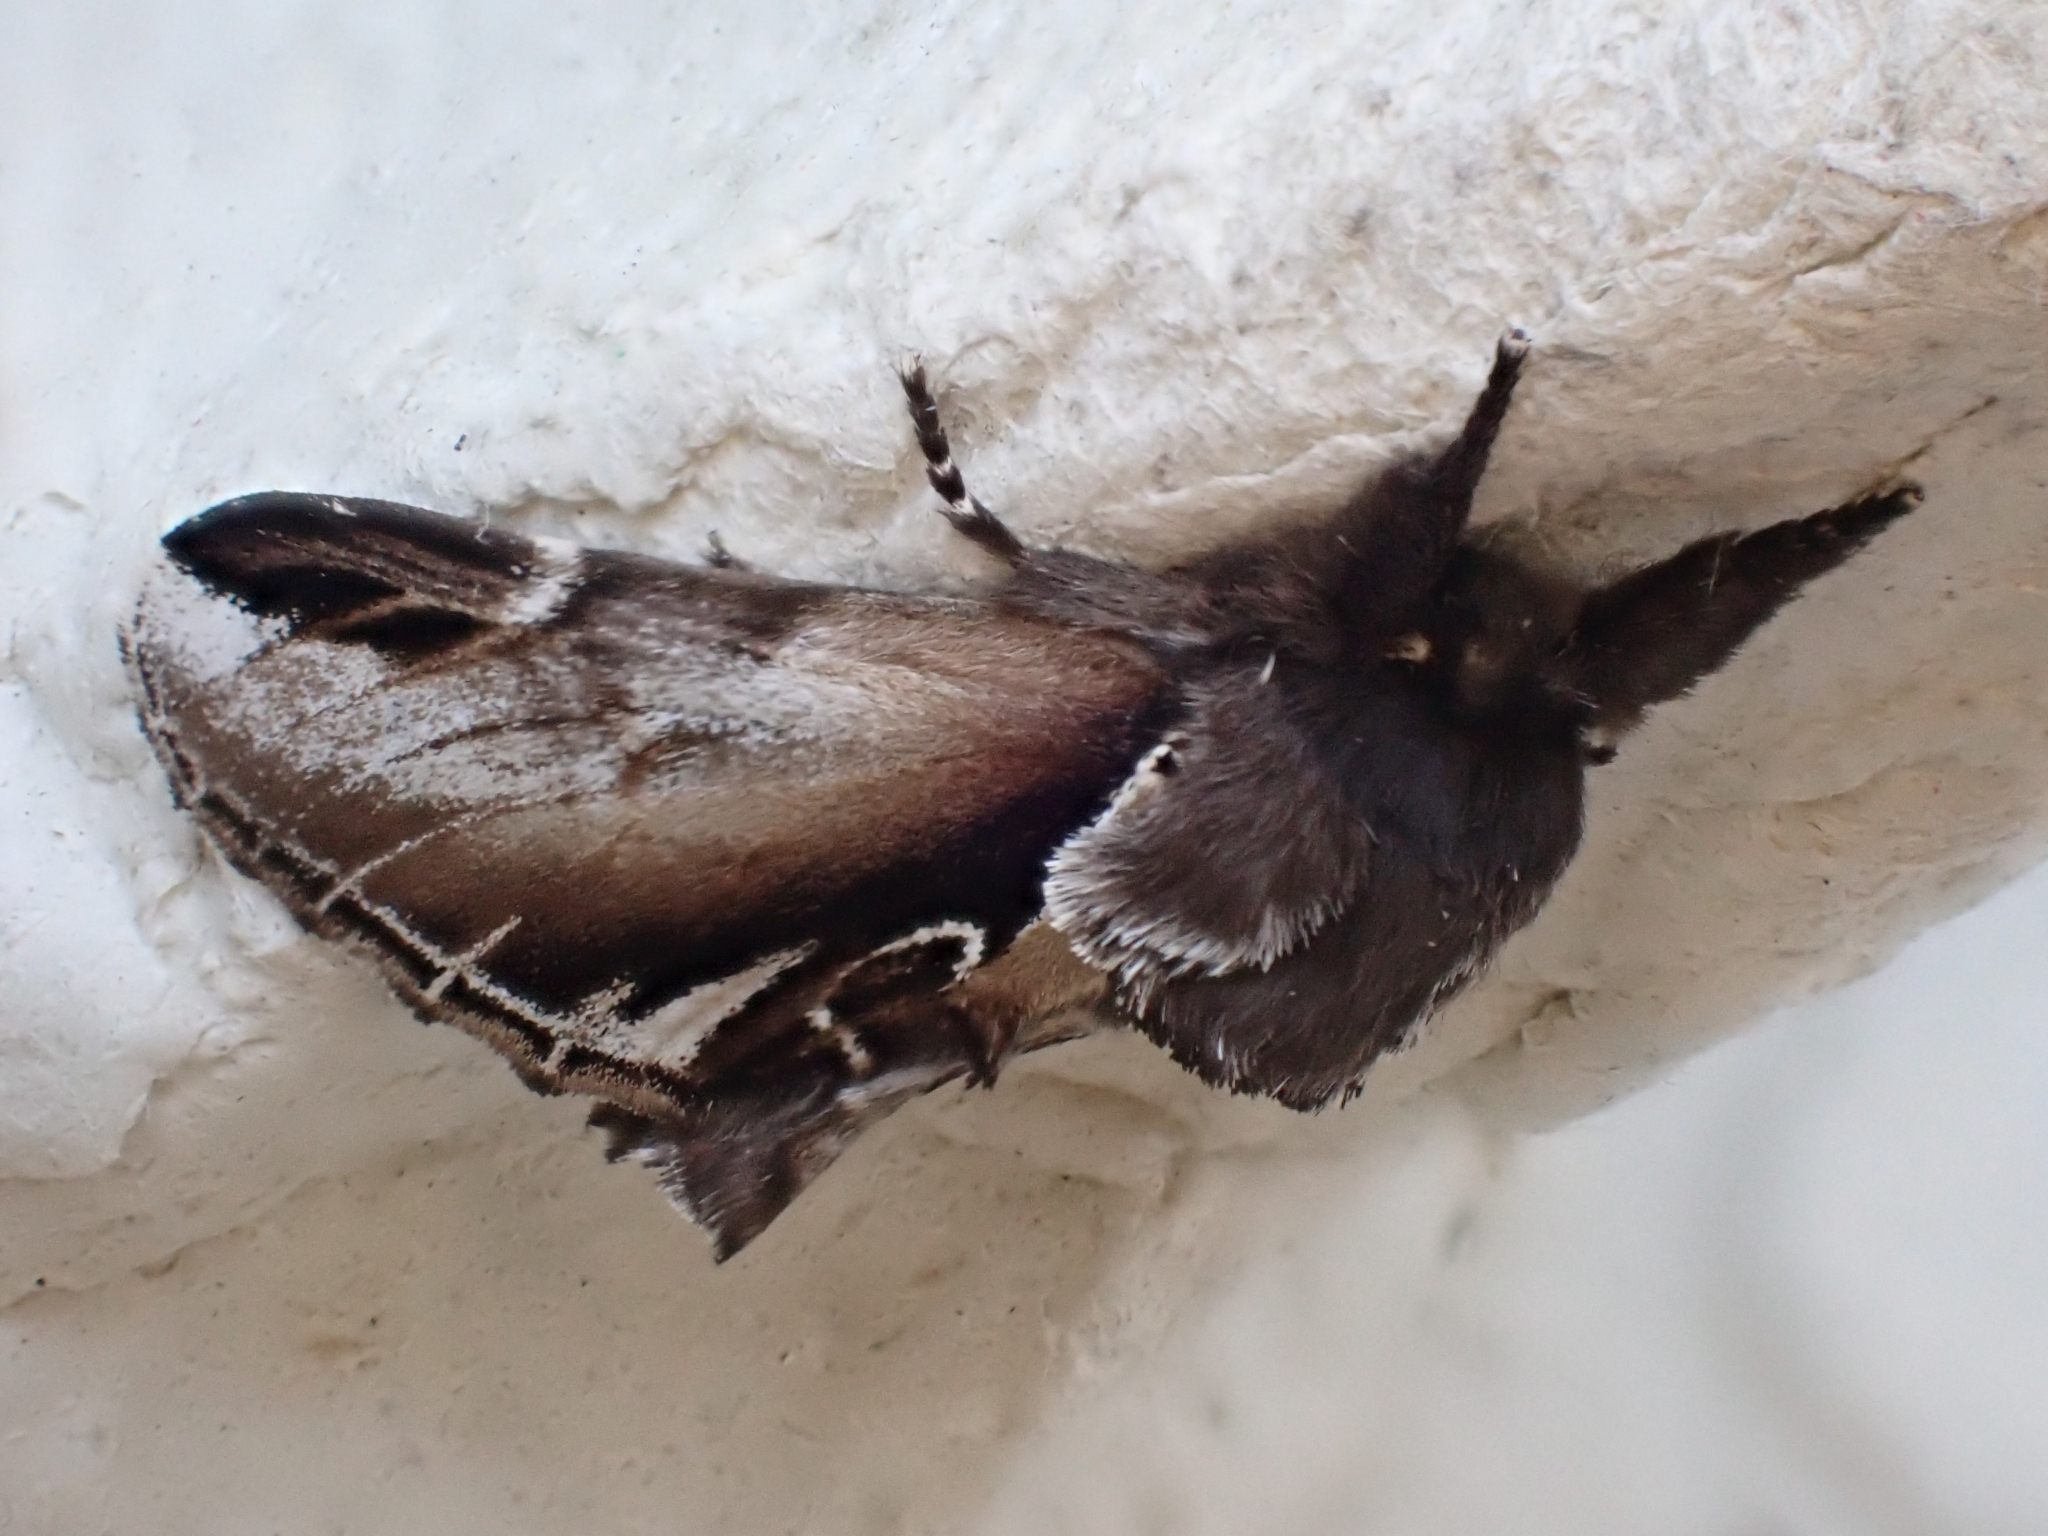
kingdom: Animalia
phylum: Arthropoda
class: Insecta
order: Lepidoptera
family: Notodontidae
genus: Pheosia
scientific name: Pheosia gnoma
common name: Lesser swallow prominent
